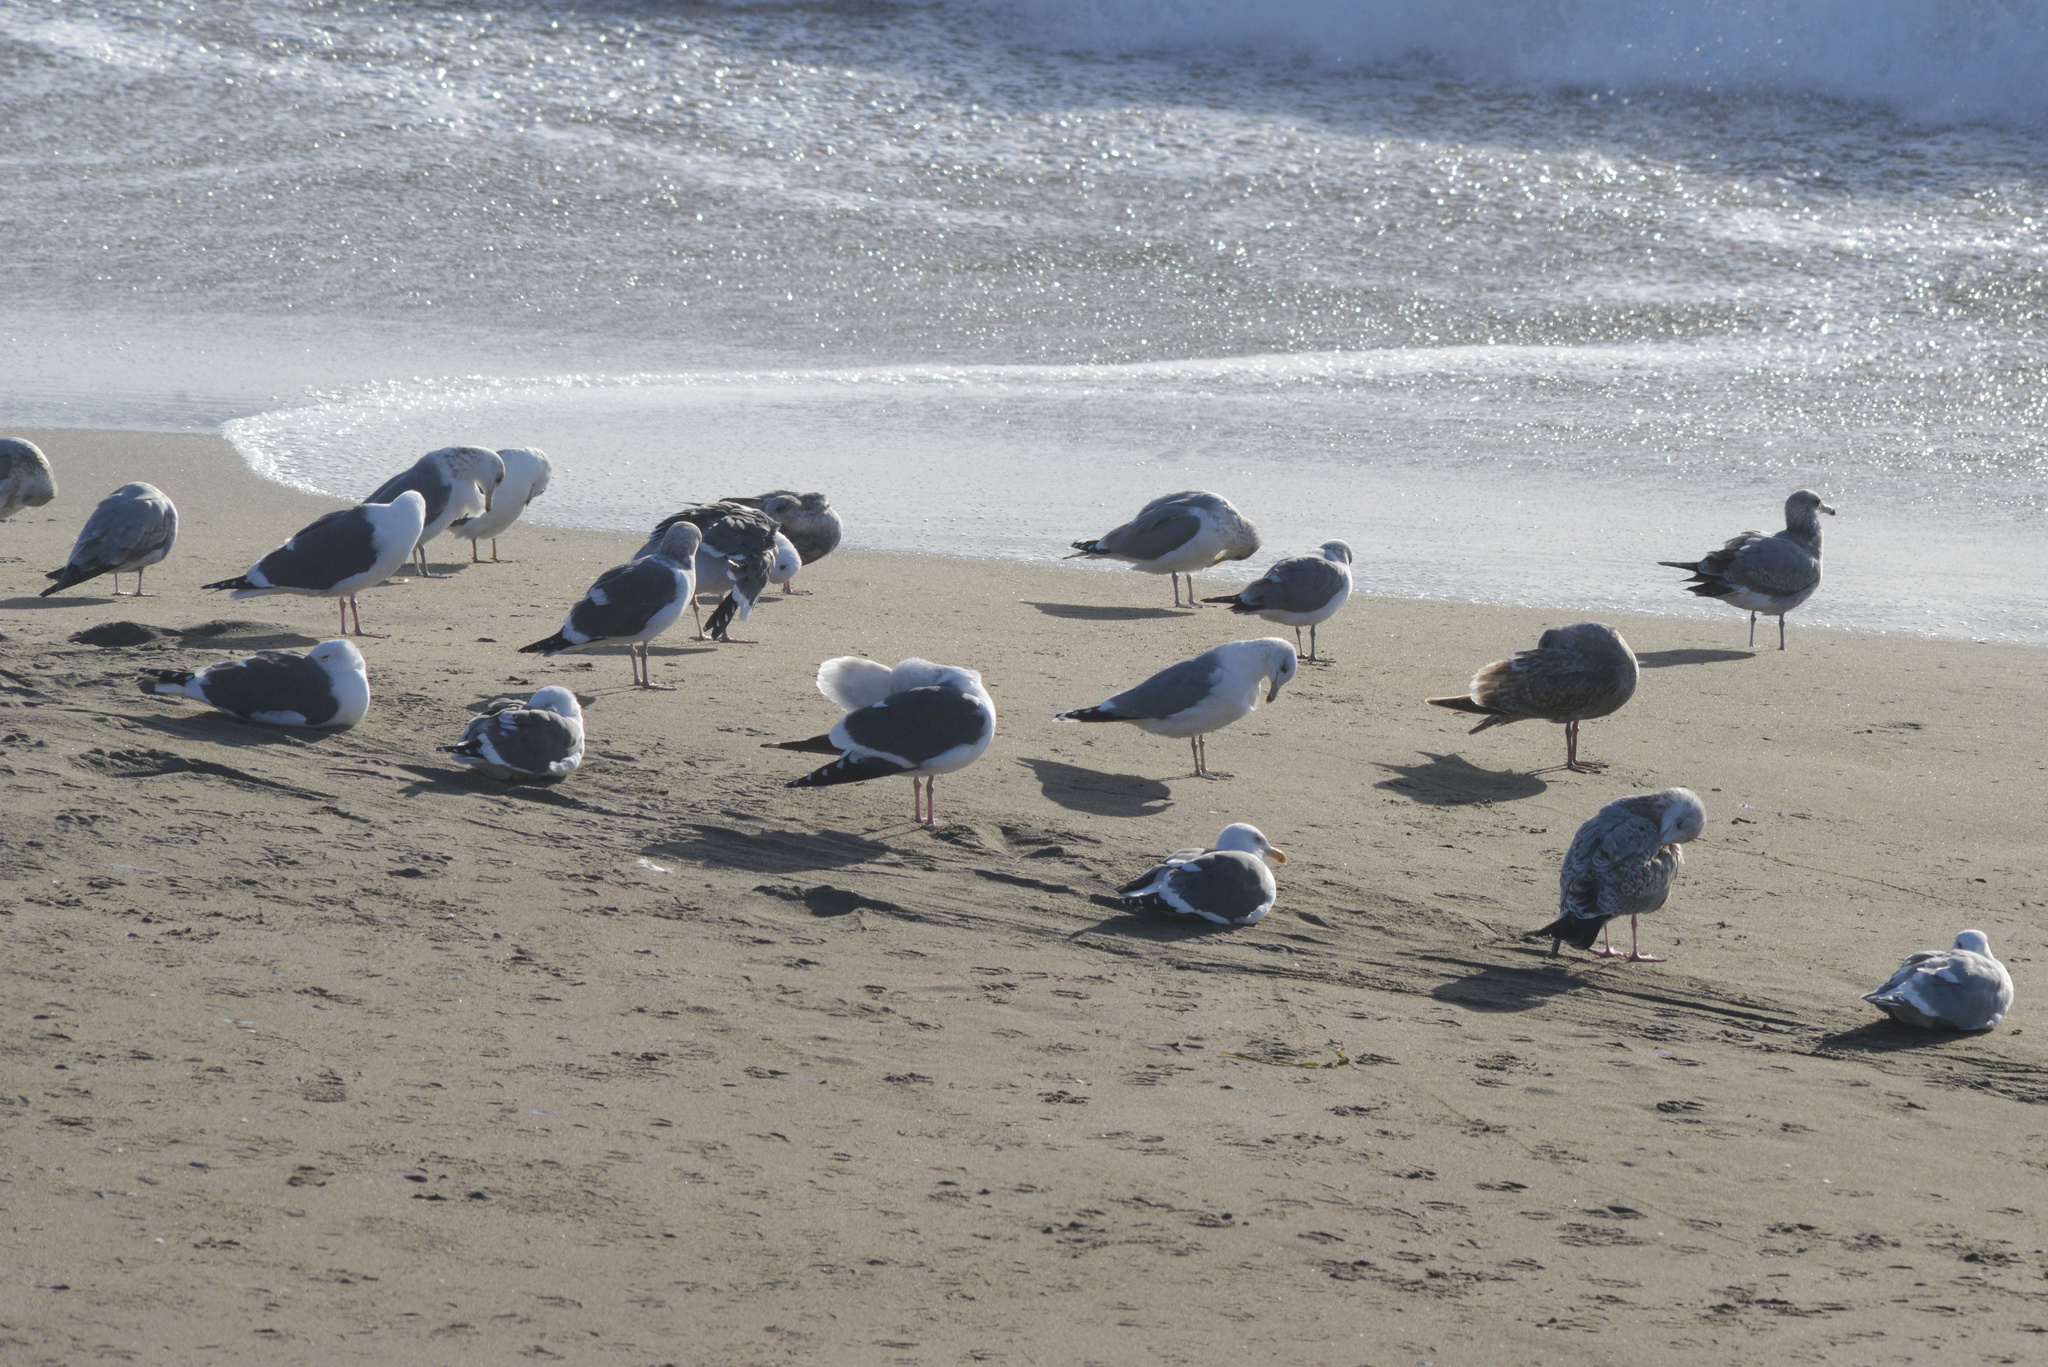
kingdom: Animalia
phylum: Chordata
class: Aves
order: Charadriiformes
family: Laridae
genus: Larus
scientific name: Larus californicus
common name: California gull
